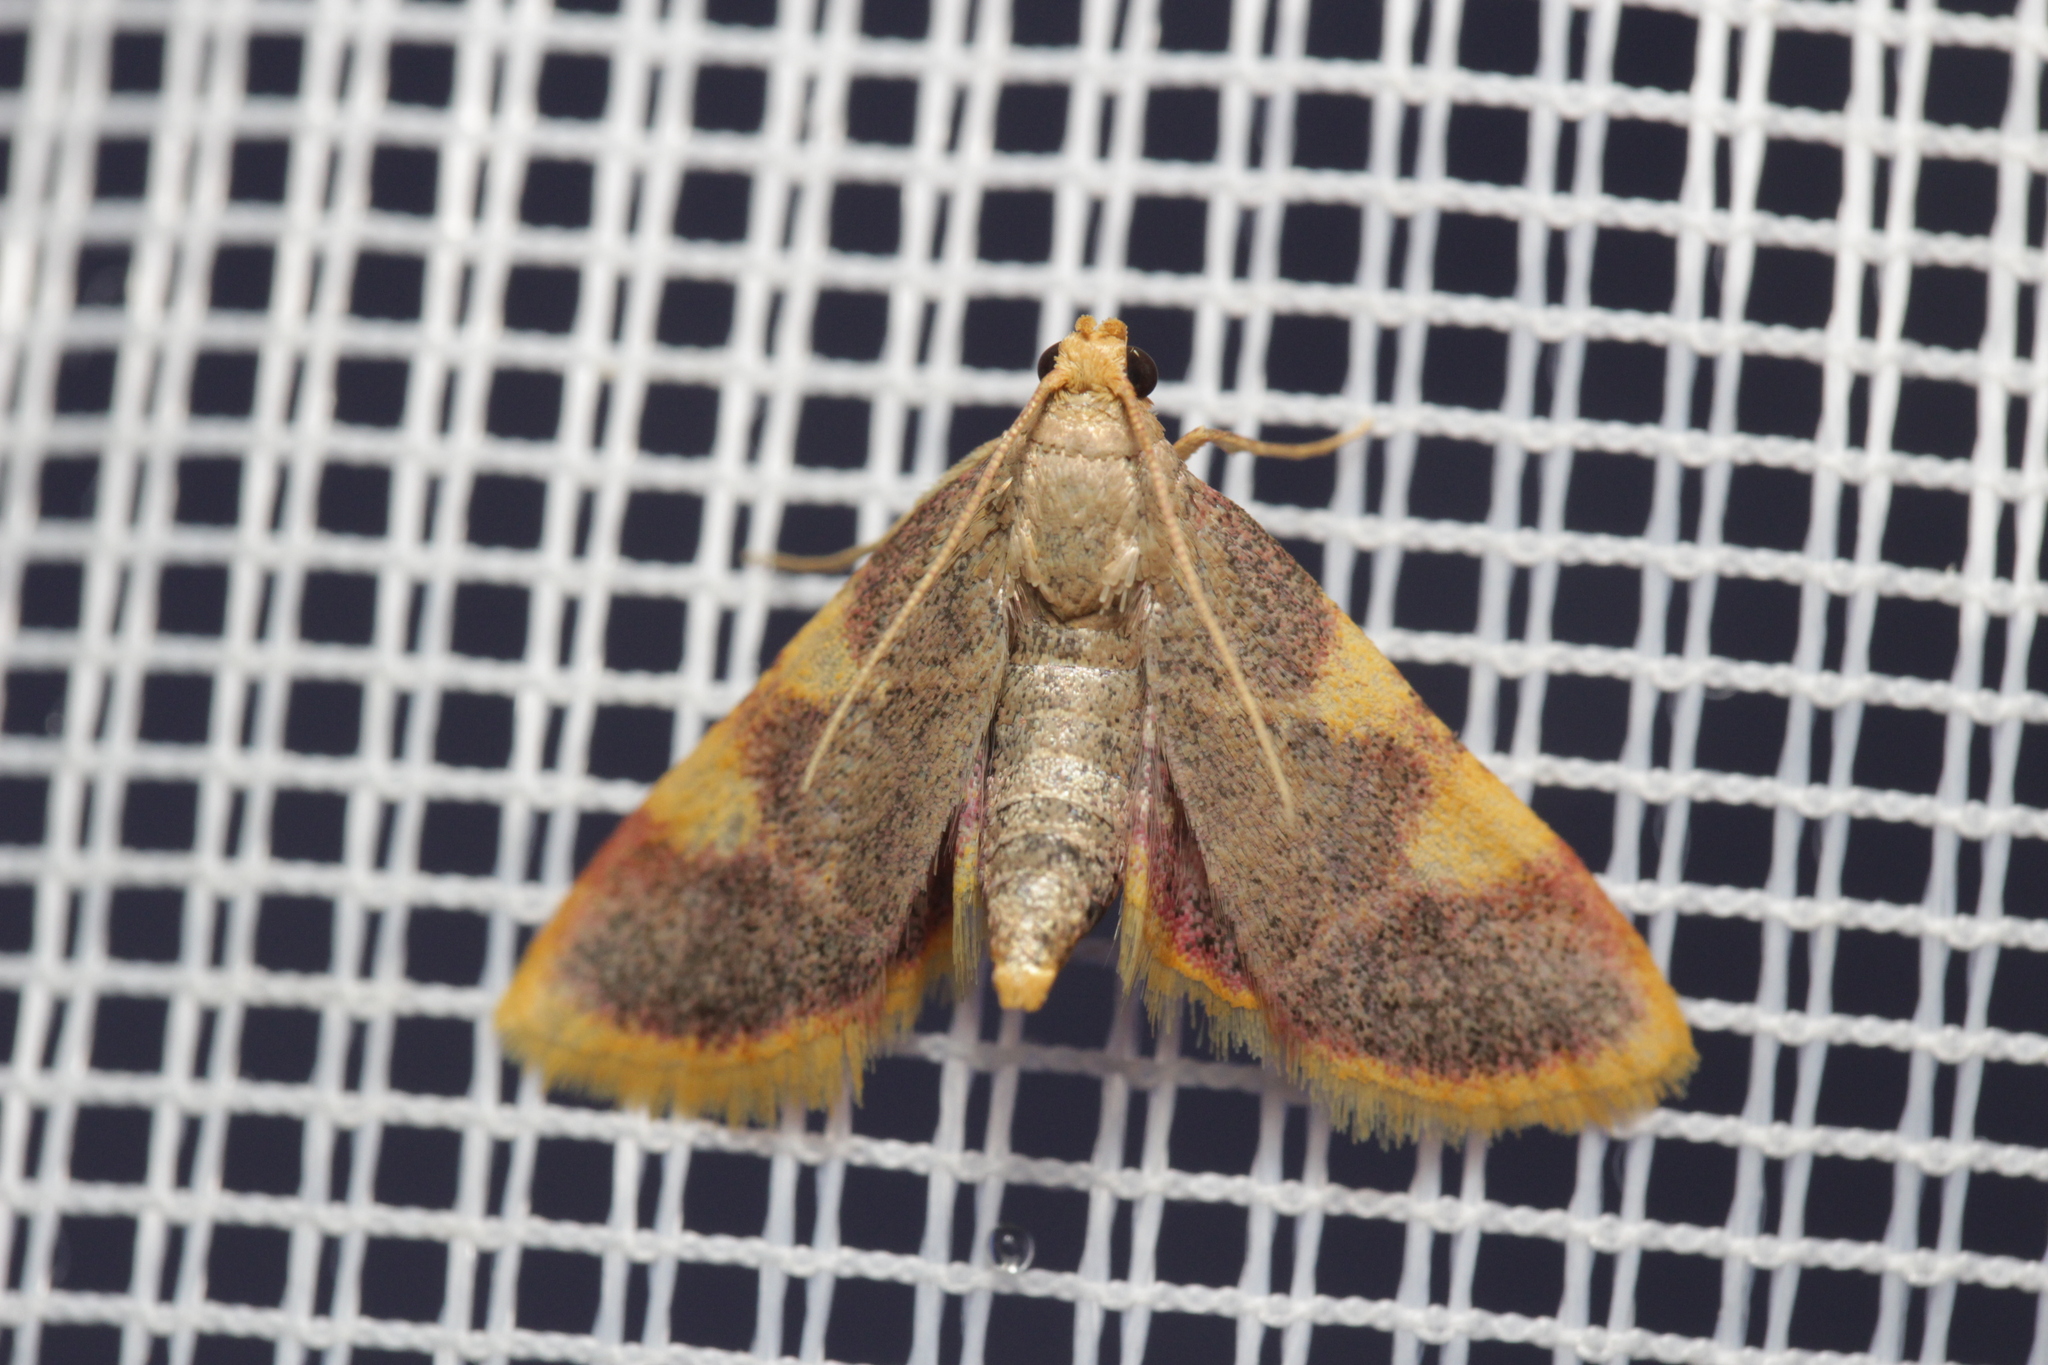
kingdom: Animalia
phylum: Arthropoda
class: Insecta
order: Lepidoptera
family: Pyralidae
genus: Hypsopygia
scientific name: Hypsopygia costalis
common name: Gold triangle
